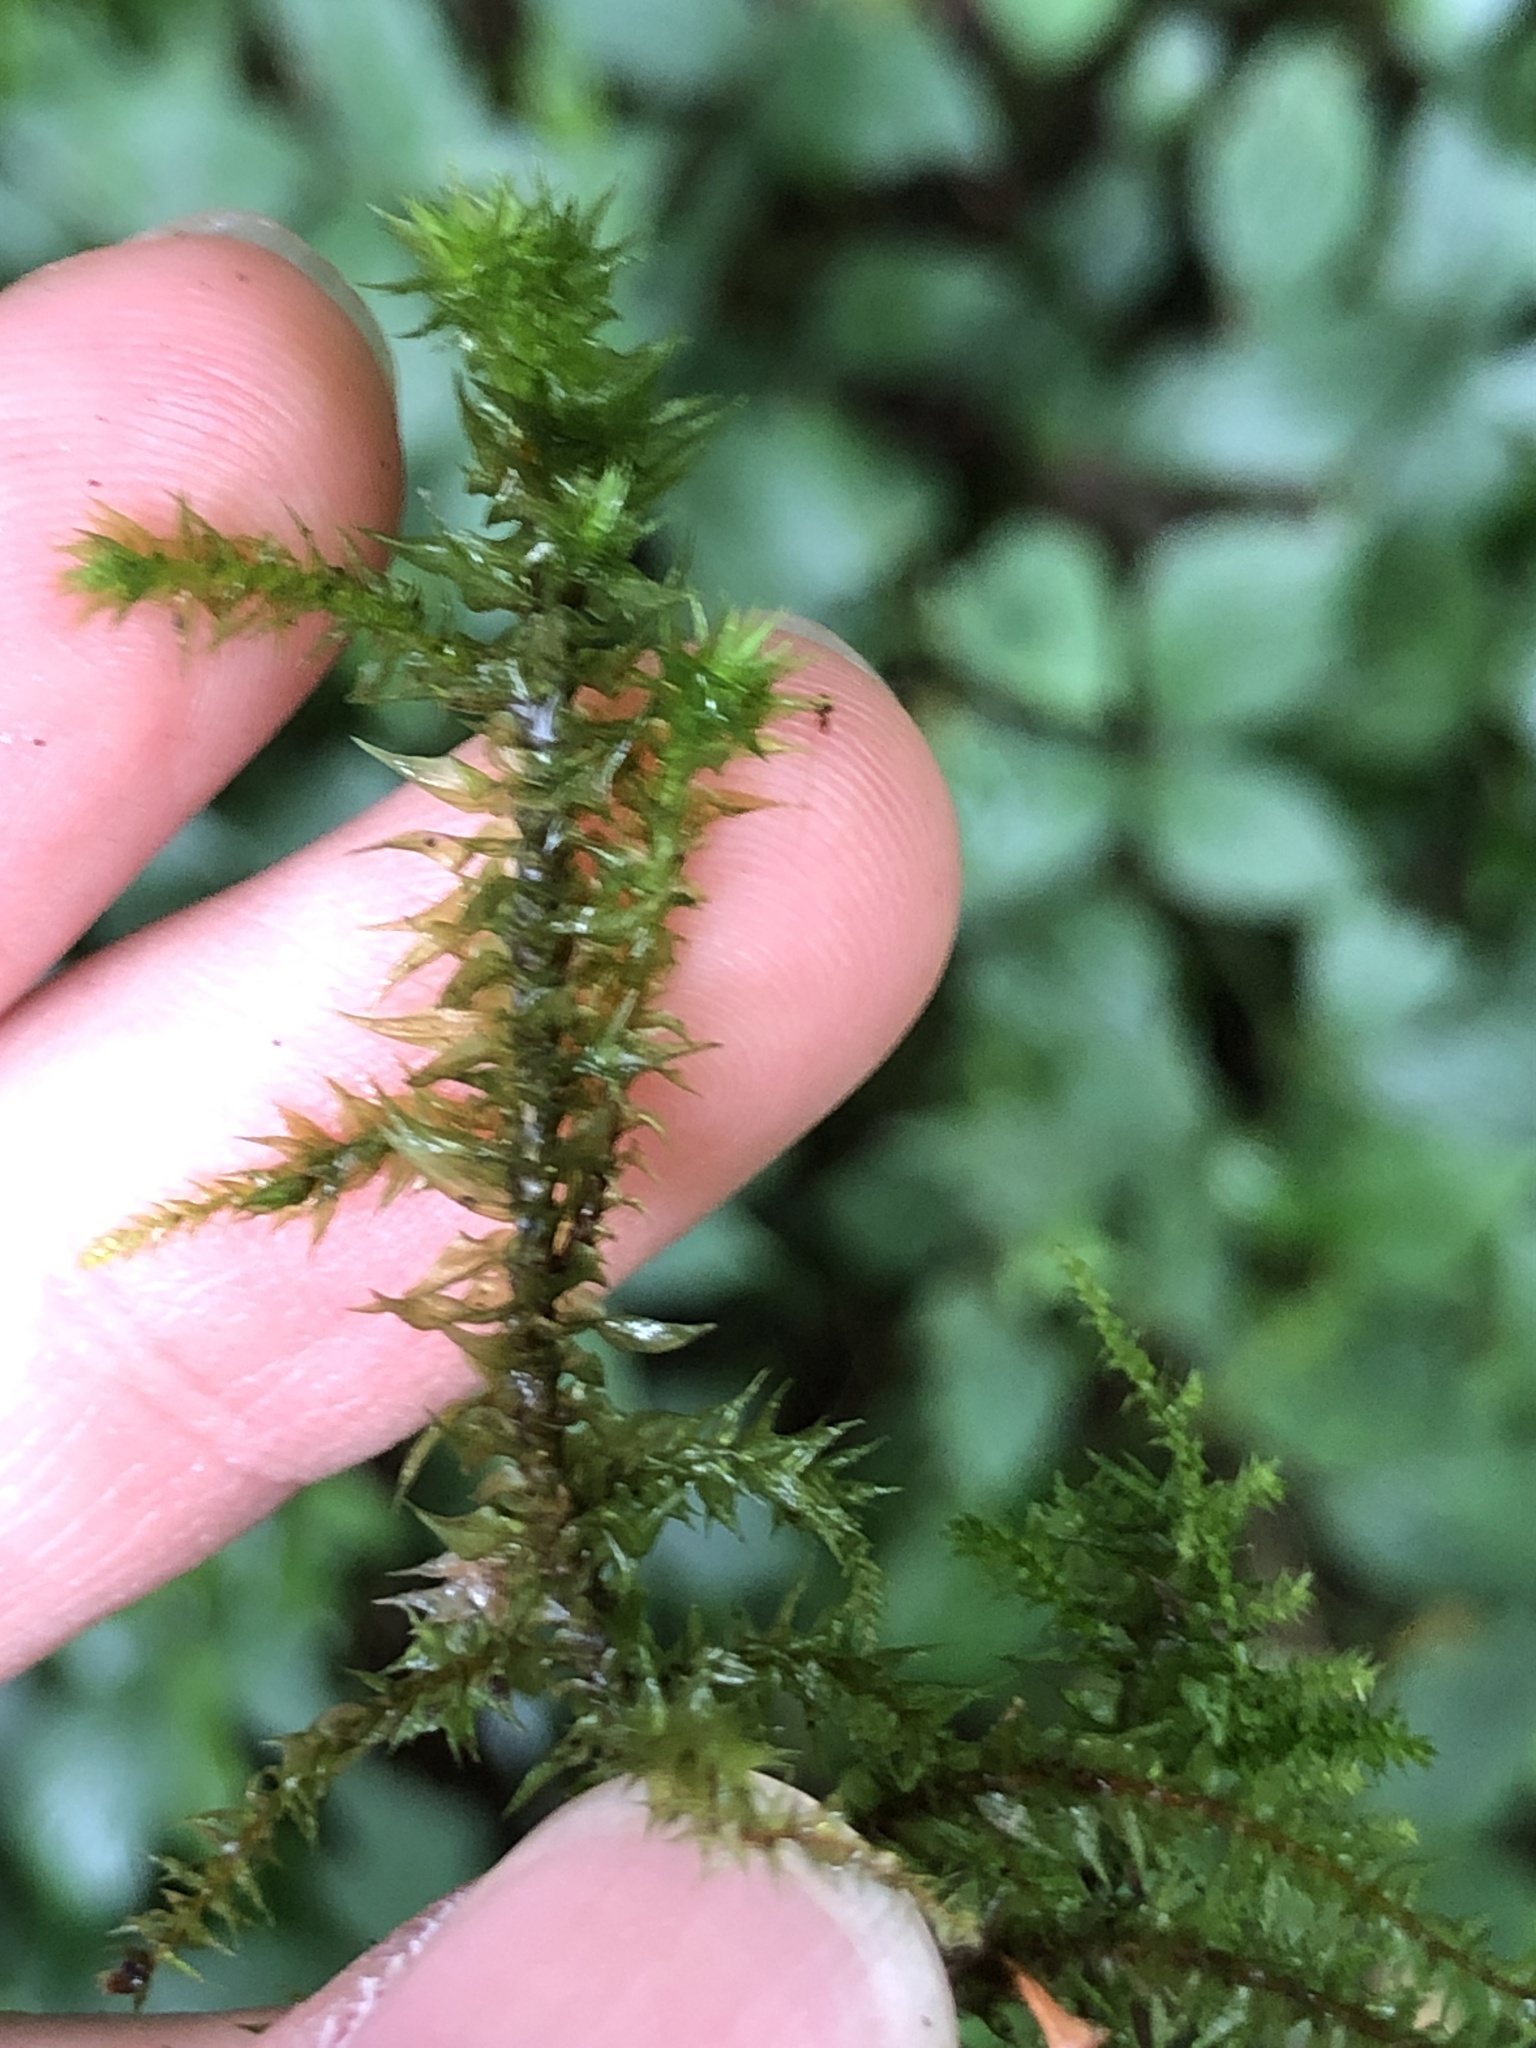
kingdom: Plantae
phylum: Bryophyta
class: Bryopsida
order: Hypnales
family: Hylocomiaceae
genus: Hylocomiadelphus
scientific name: Hylocomiadelphus triquetrus
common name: Rough goose neck moss
